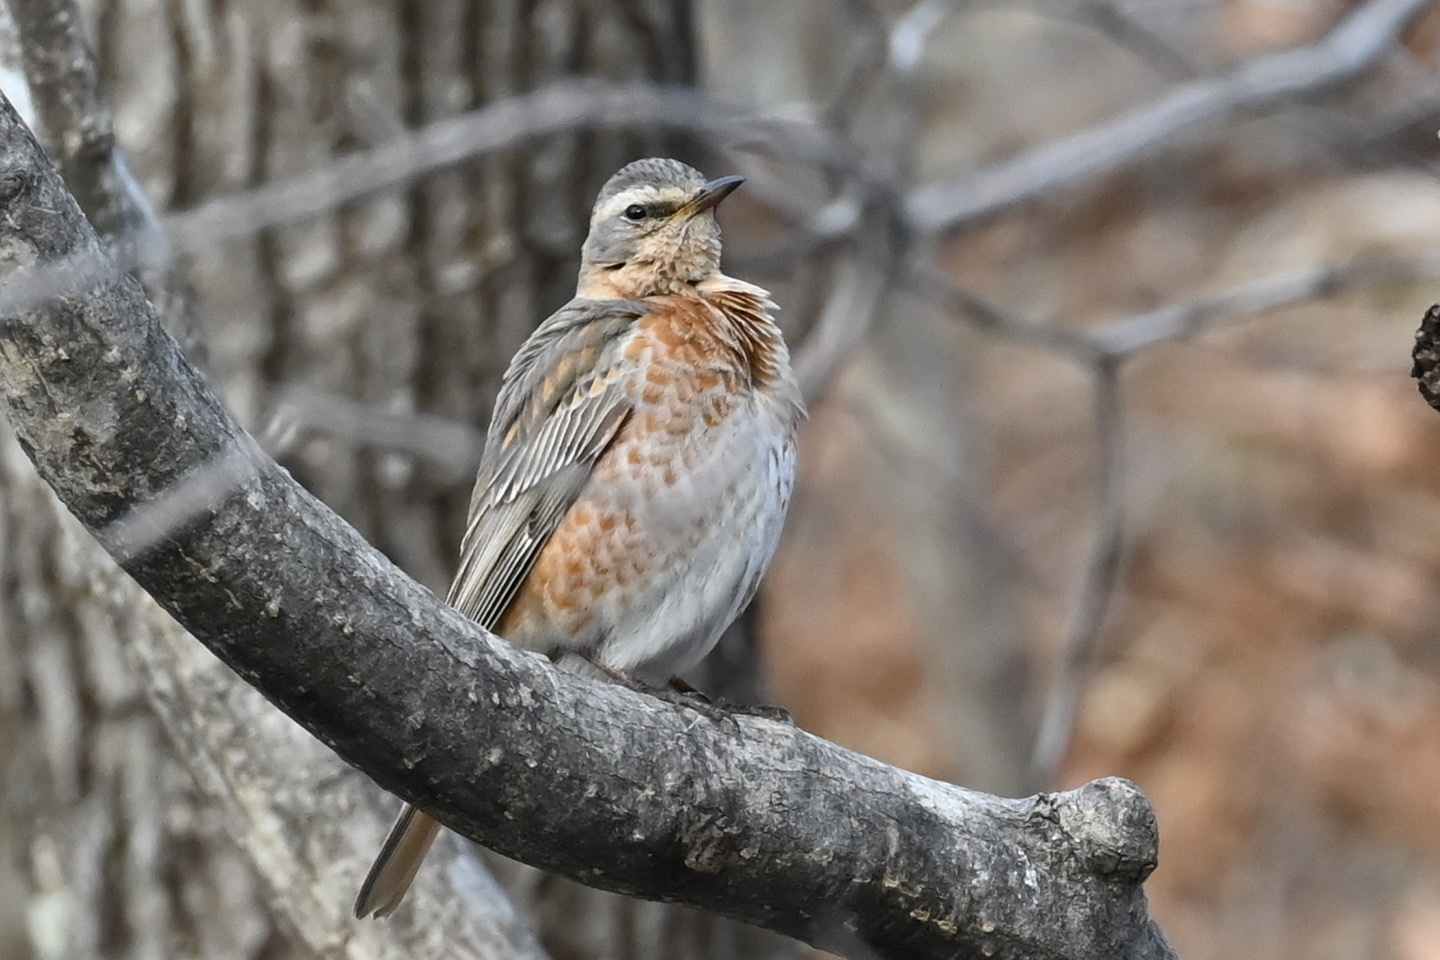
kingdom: Animalia
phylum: Chordata
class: Aves
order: Passeriformes
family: Turdidae
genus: Turdus
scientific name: Turdus naumanni
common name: Naumann's thrush
